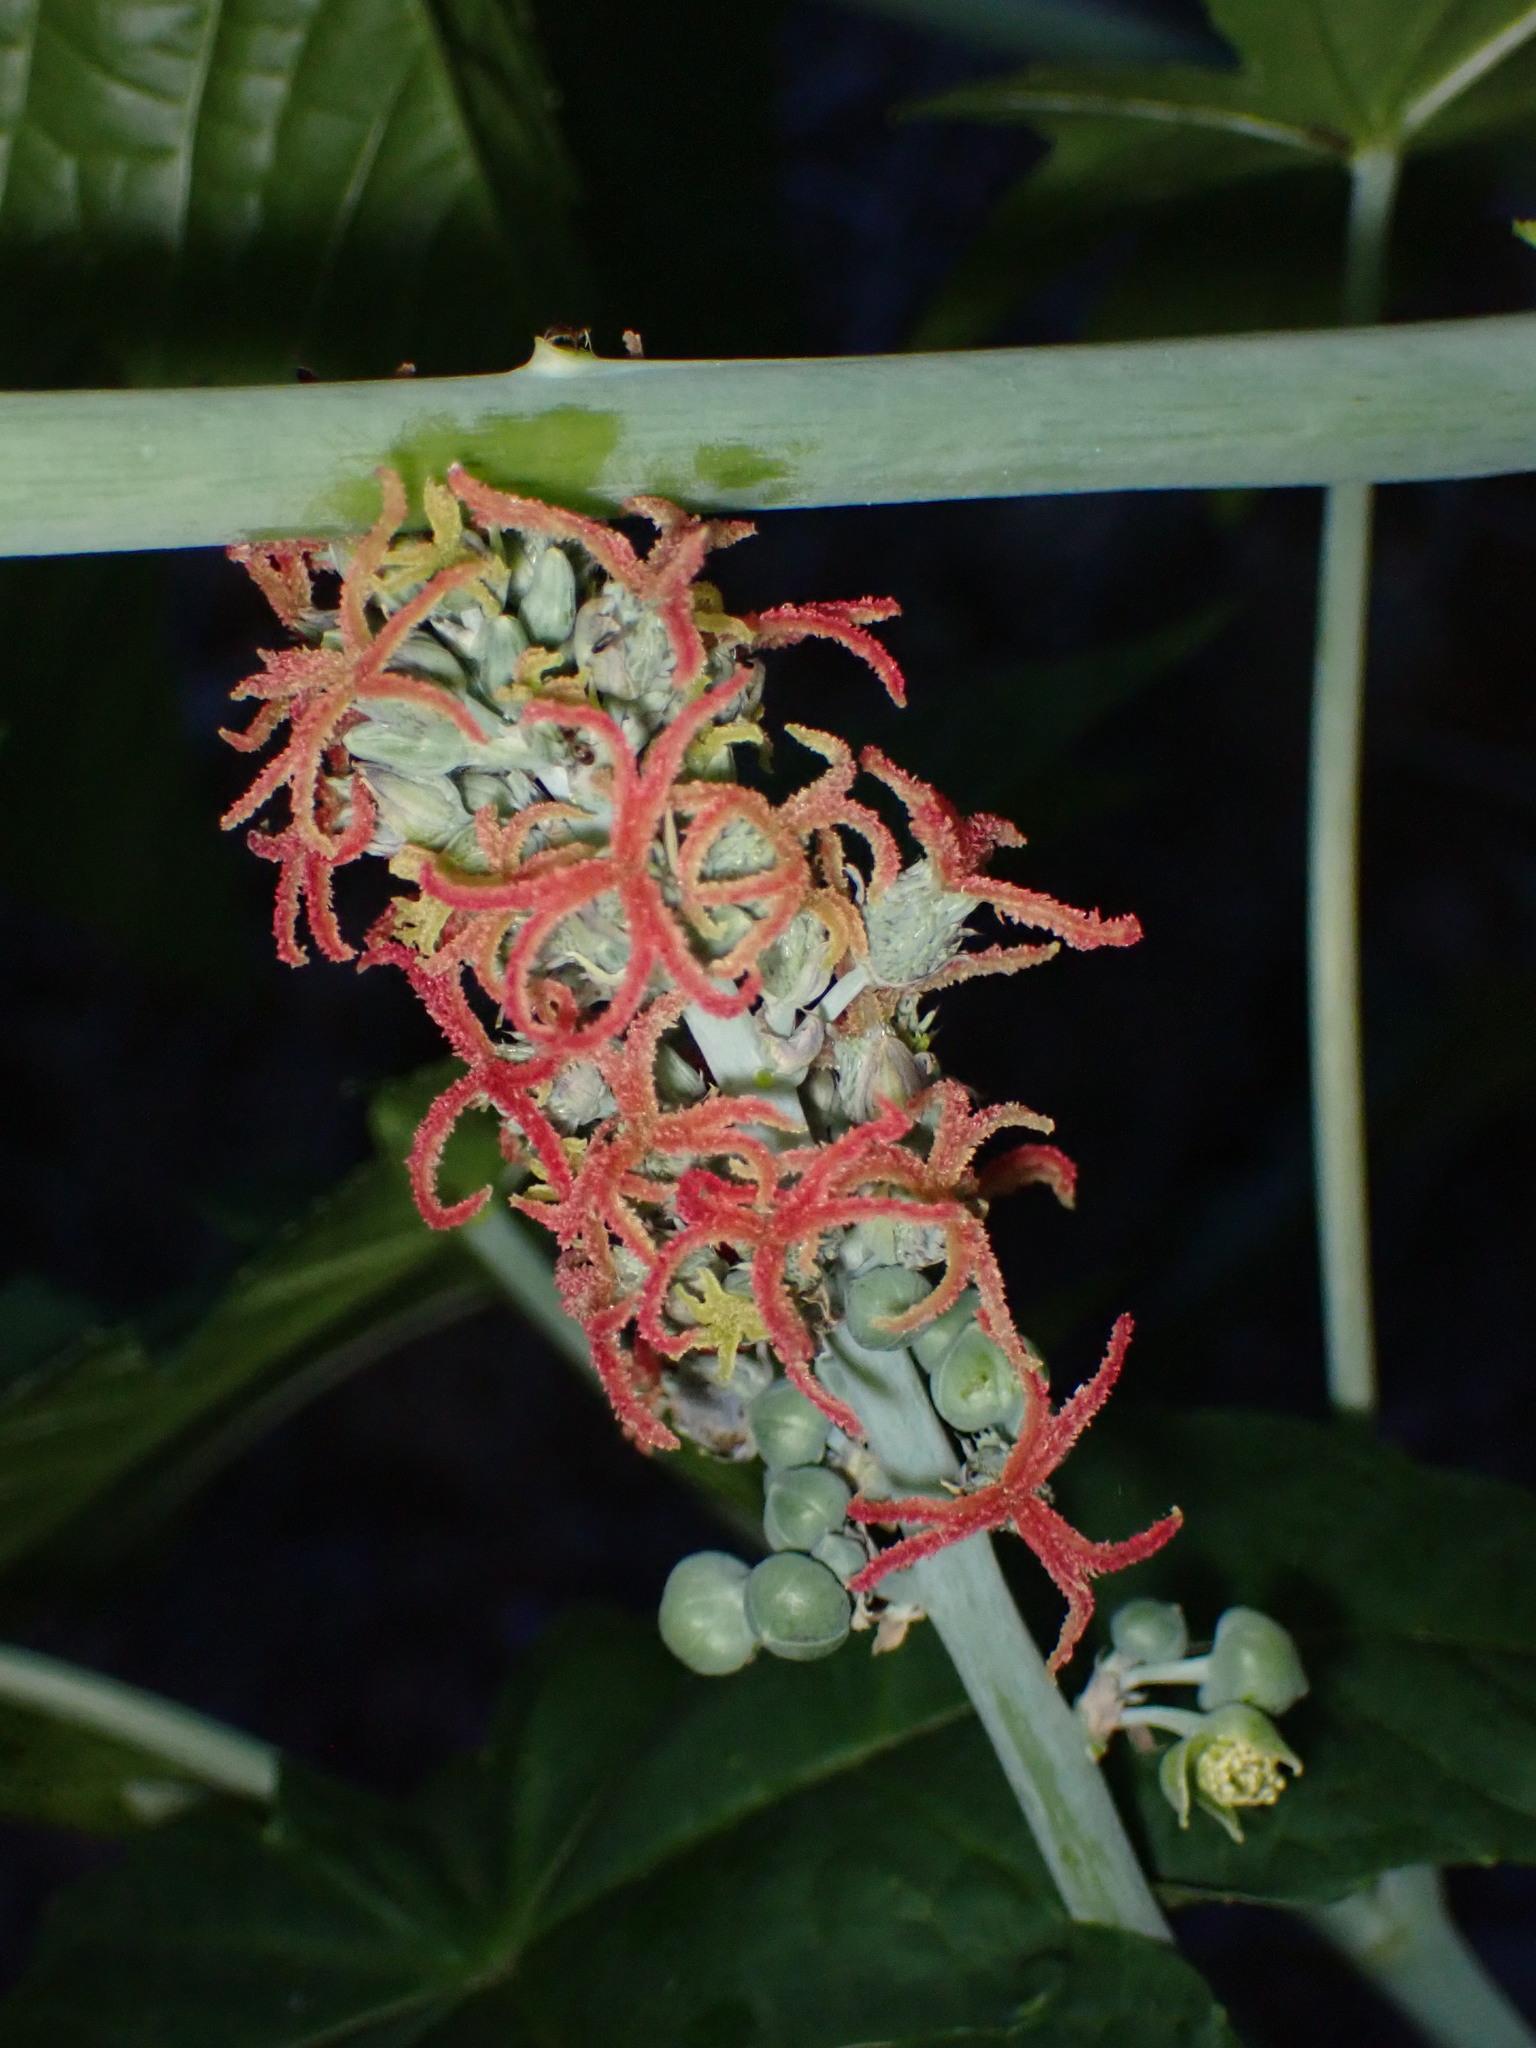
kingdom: Plantae
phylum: Tracheophyta
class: Magnoliopsida
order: Malpighiales
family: Euphorbiaceae
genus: Ricinus
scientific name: Ricinus communis
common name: Castor-oil-plant
